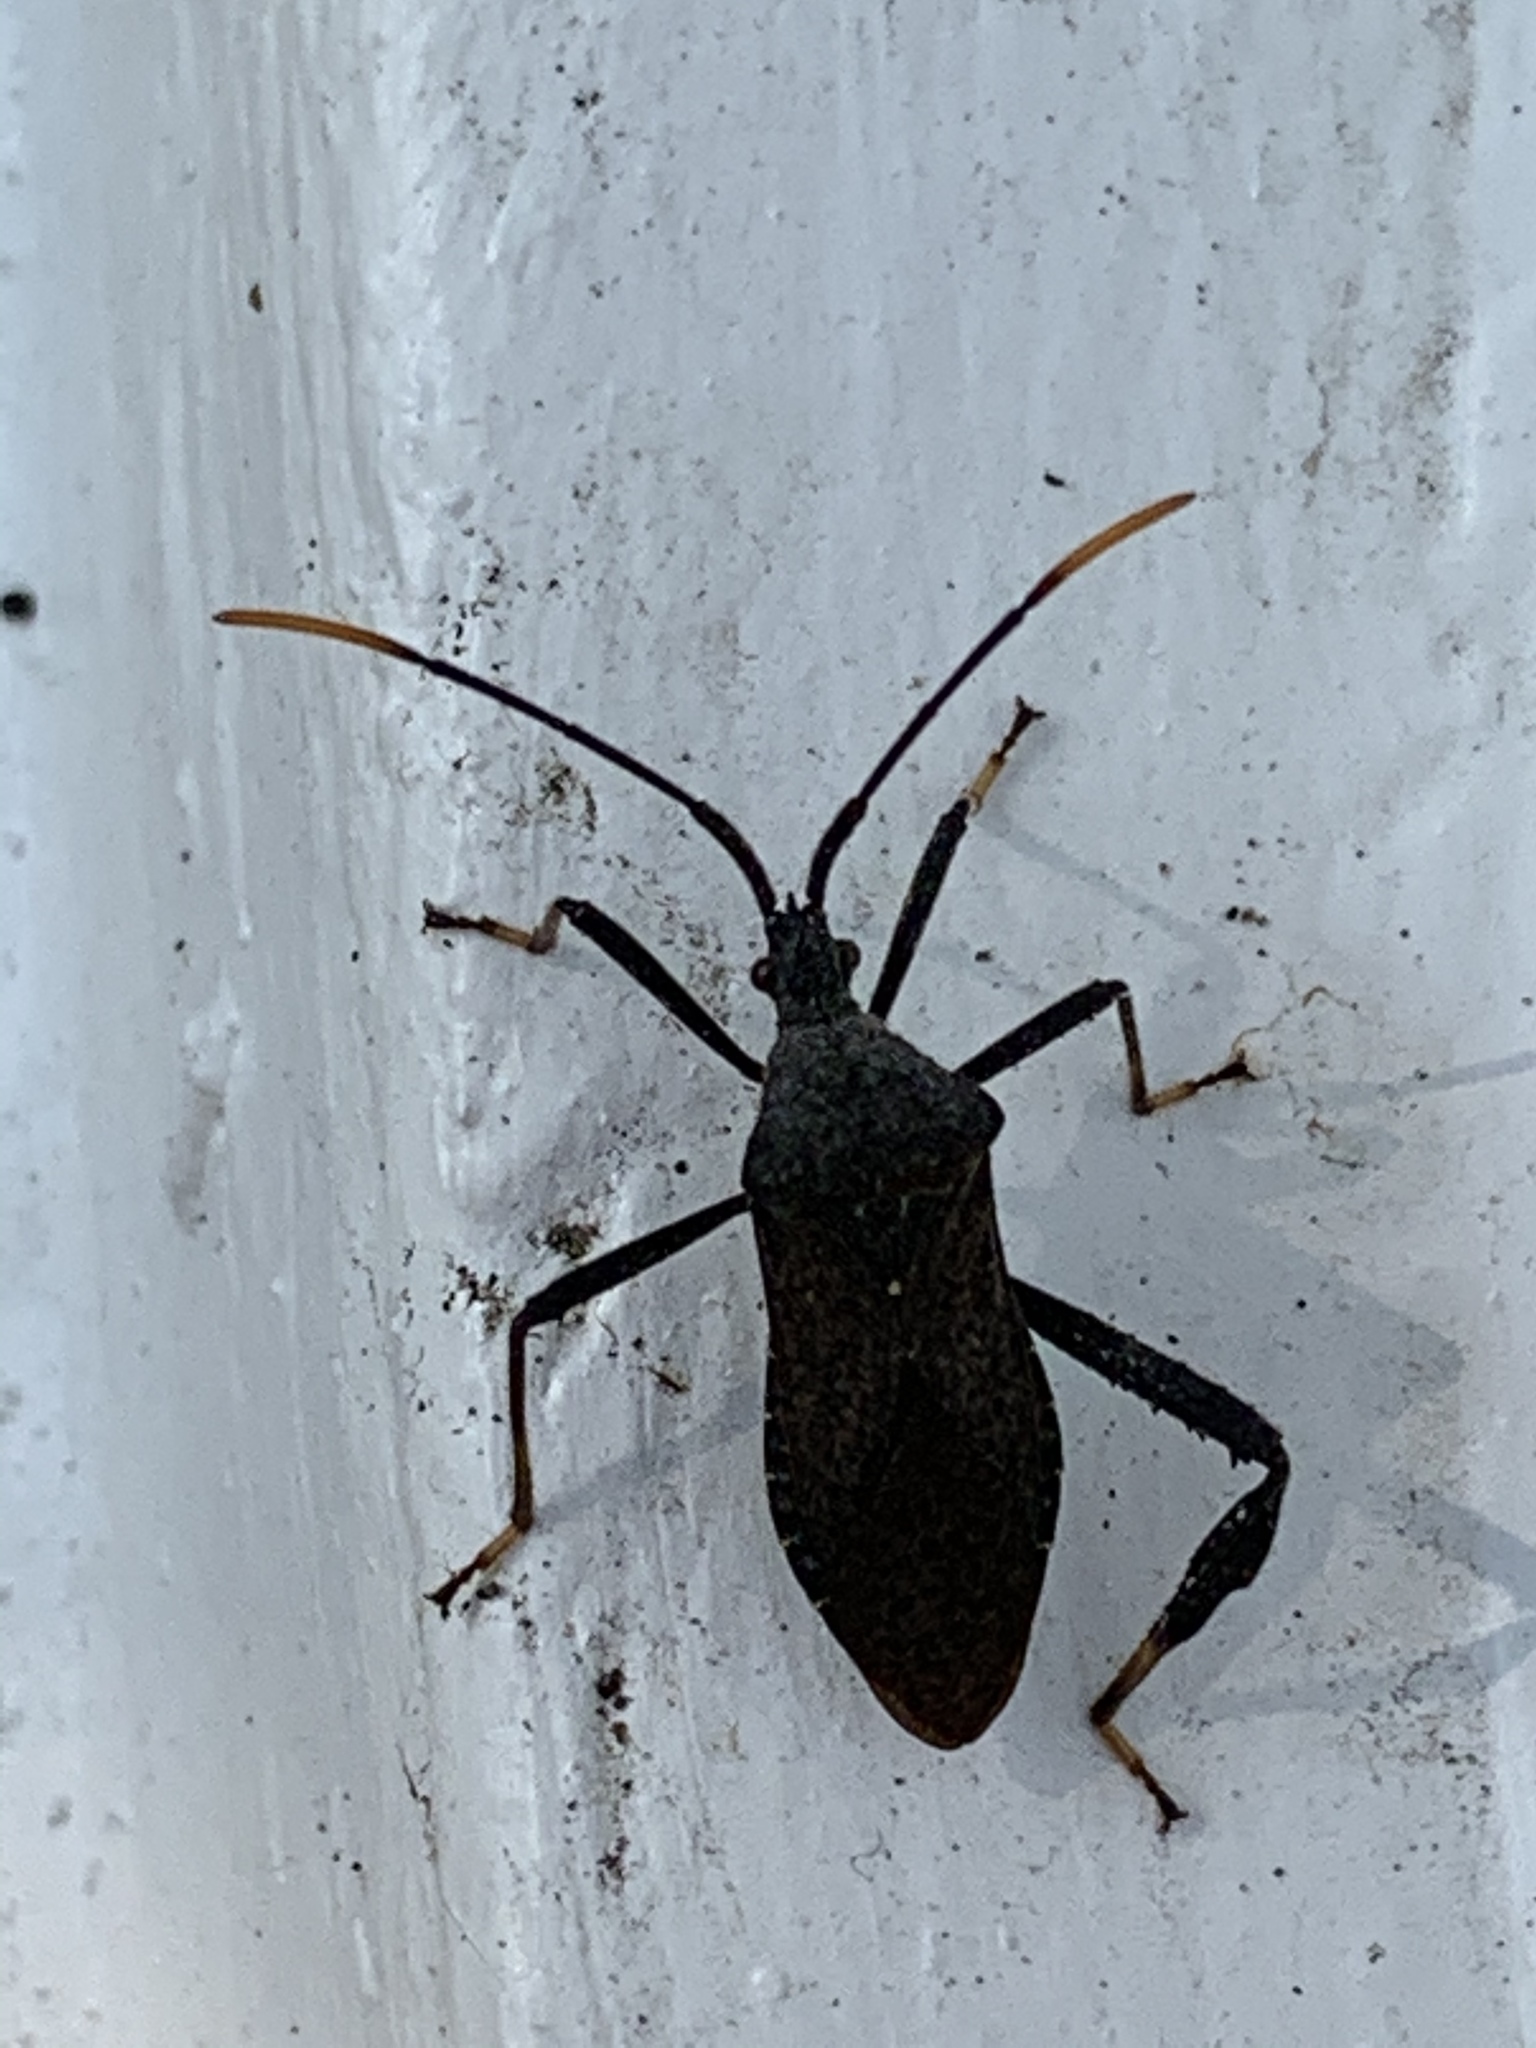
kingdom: Animalia
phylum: Arthropoda
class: Insecta
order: Hemiptera
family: Coreidae
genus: Acanthocephala
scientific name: Acanthocephala terminalis
